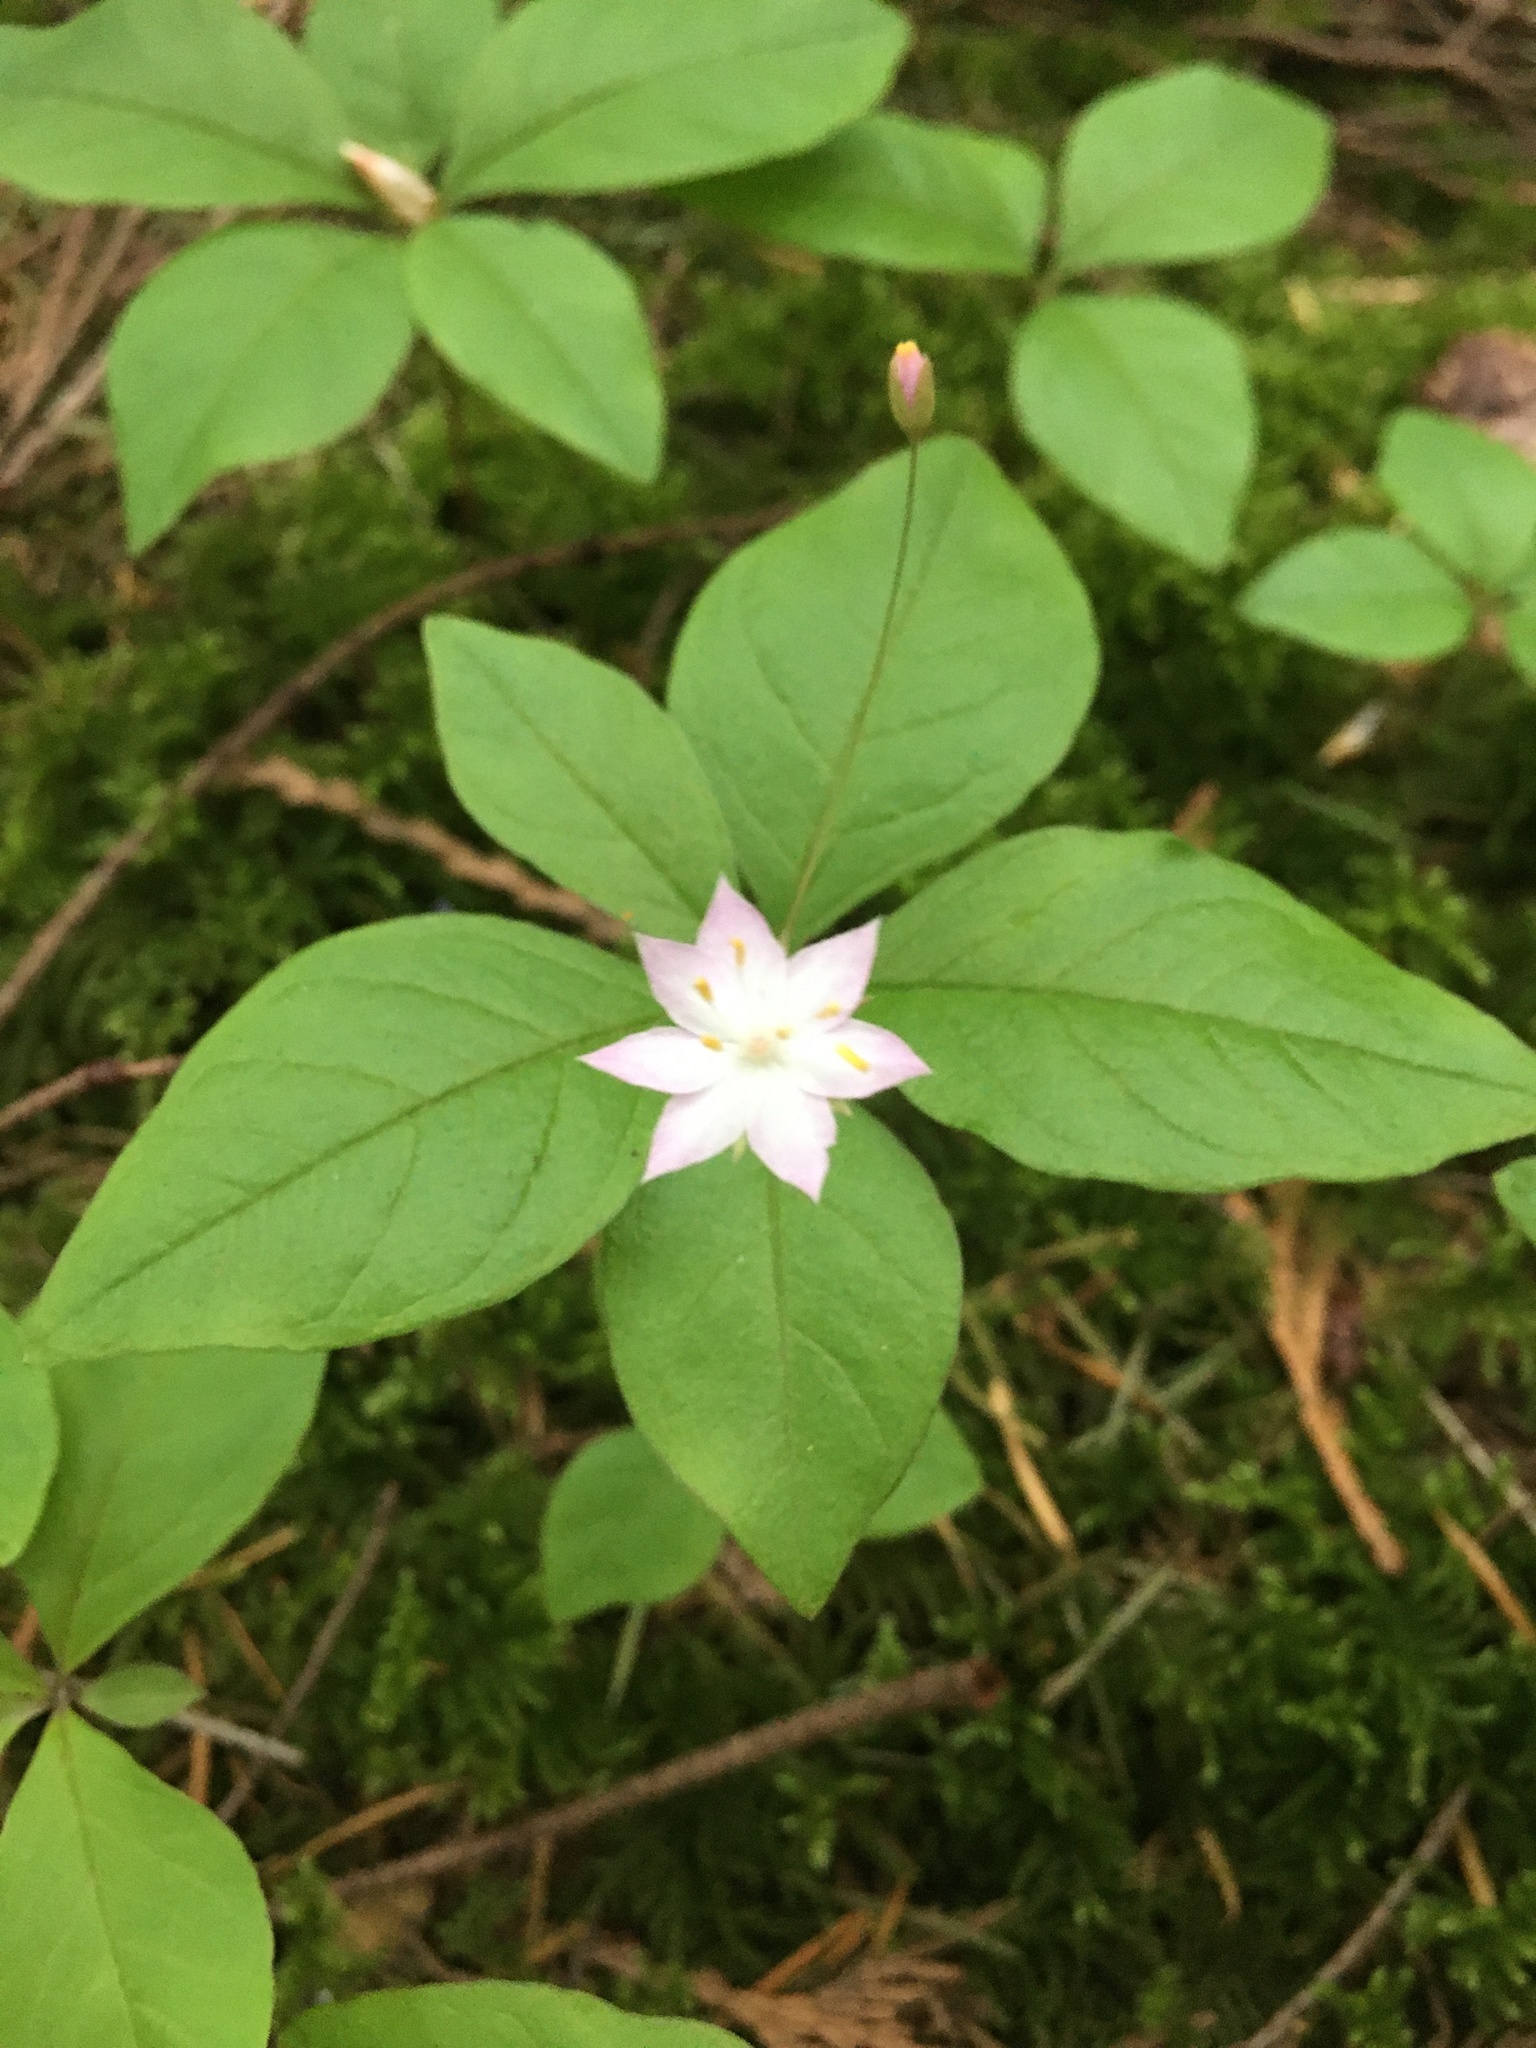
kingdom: Plantae
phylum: Tracheophyta
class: Magnoliopsida
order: Ericales
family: Primulaceae
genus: Lysimachia
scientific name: Lysimachia latifolia
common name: Pacific starflower
